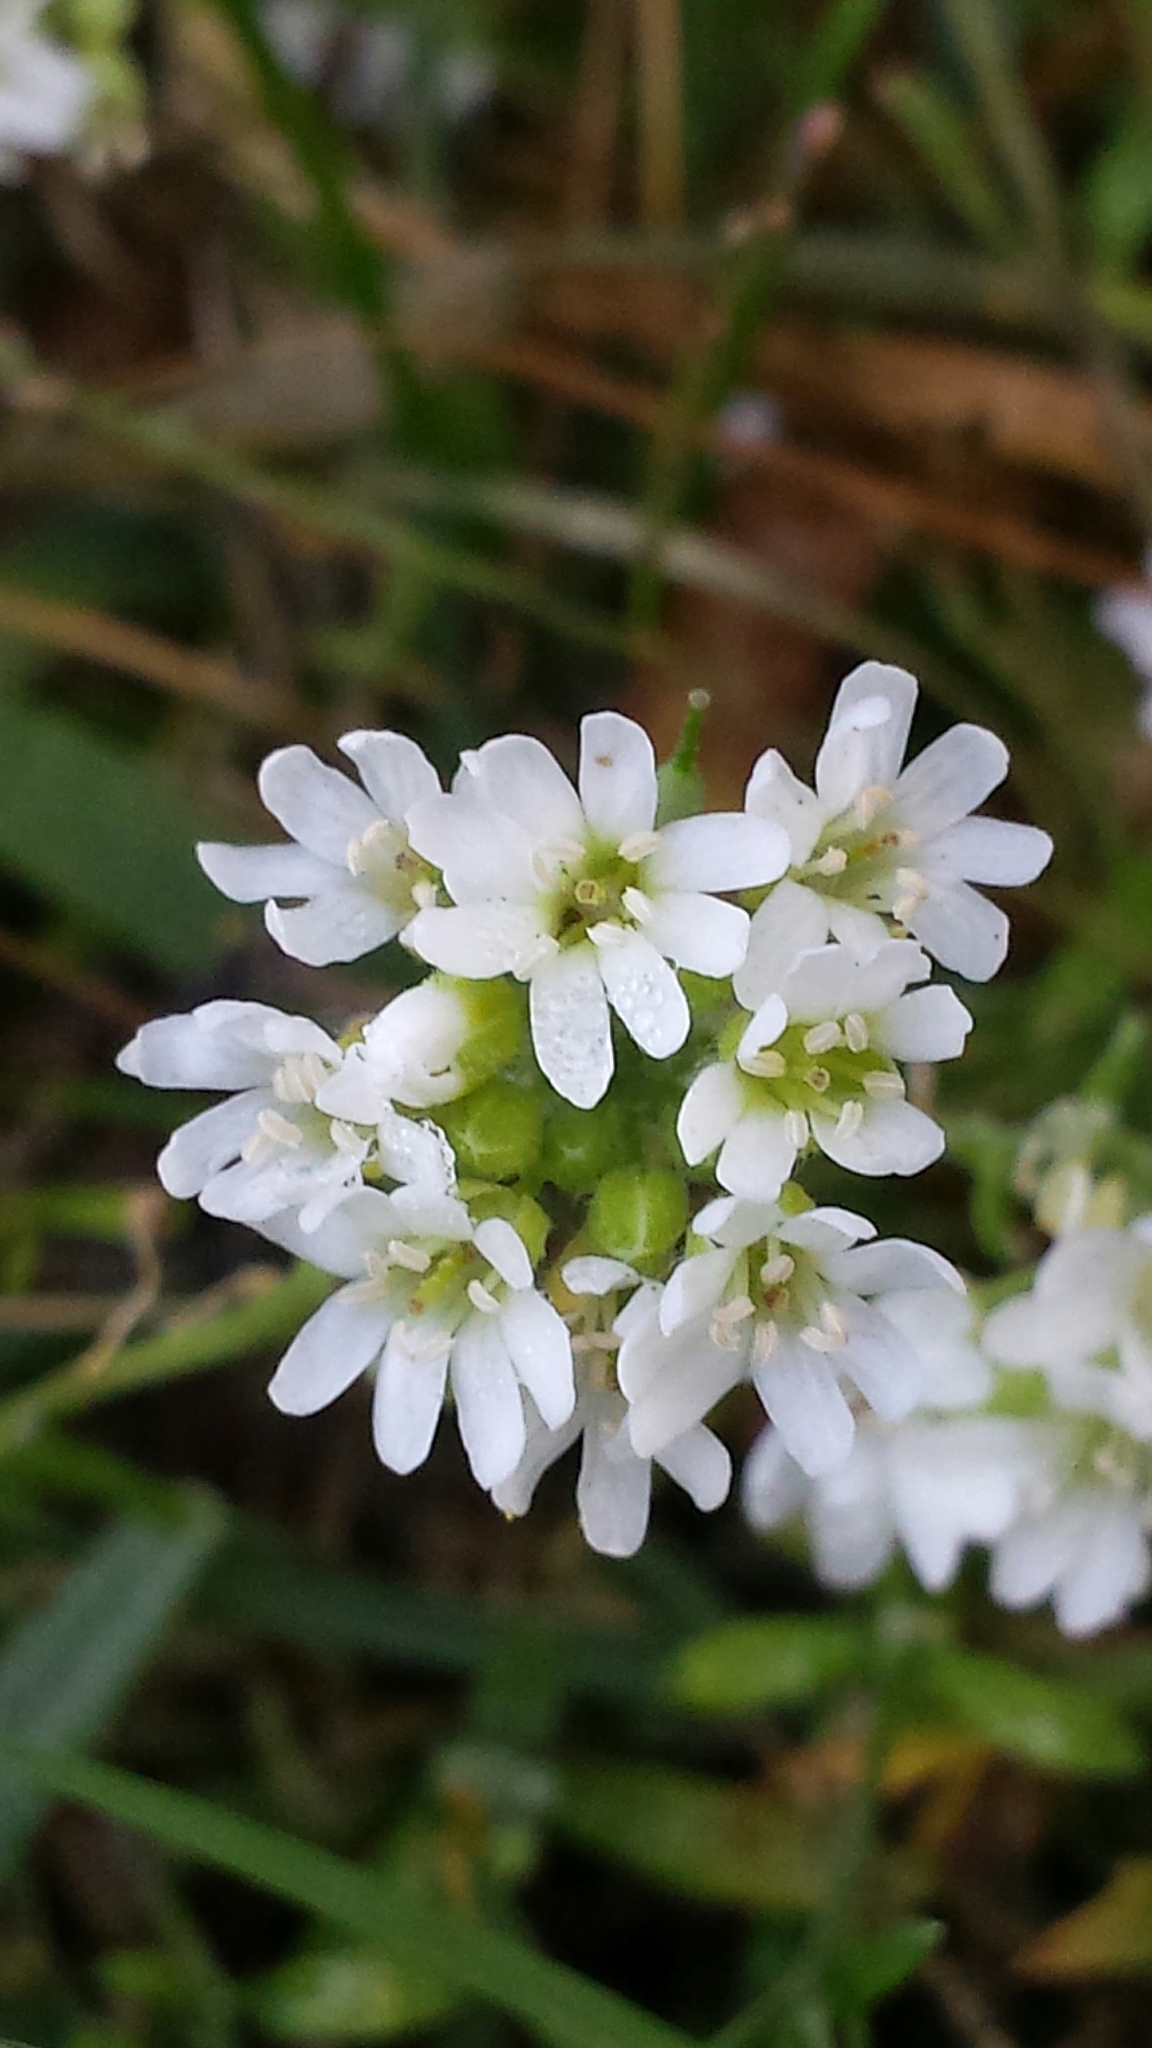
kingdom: Plantae
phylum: Tracheophyta
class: Magnoliopsida
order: Brassicales
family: Brassicaceae
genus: Berteroa
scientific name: Berteroa incana
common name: Hoary alison
